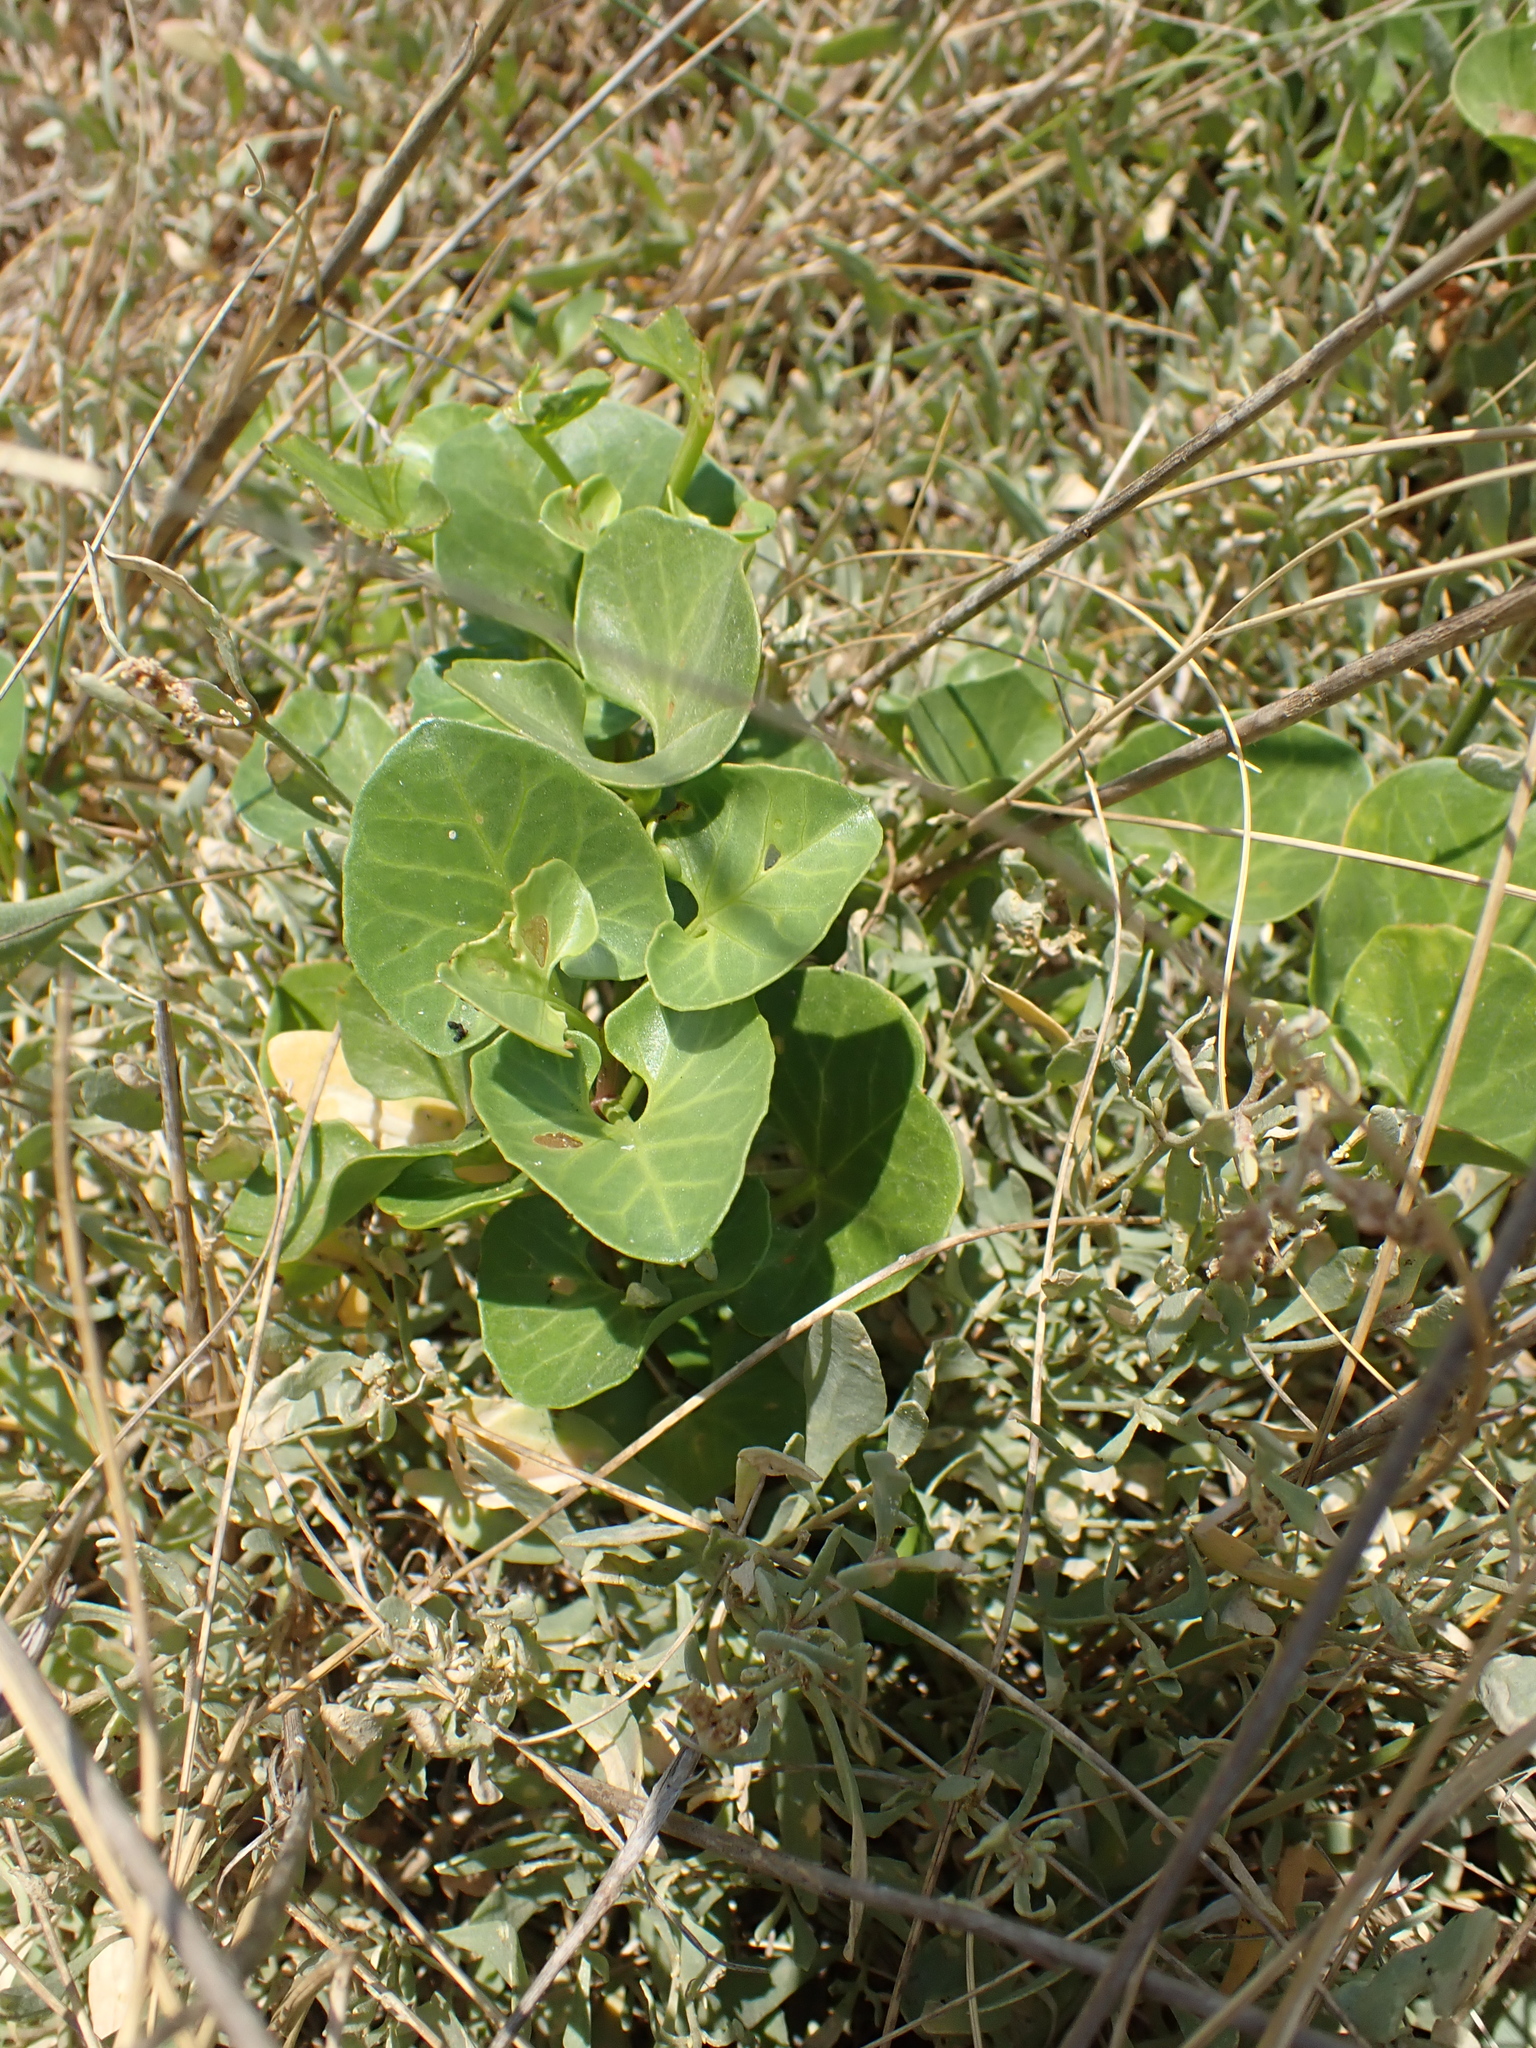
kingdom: Plantae
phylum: Tracheophyta
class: Magnoliopsida
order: Solanales
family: Convolvulaceae
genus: Calystegia
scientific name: Calystegia soldanella
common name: Sea bindweed
